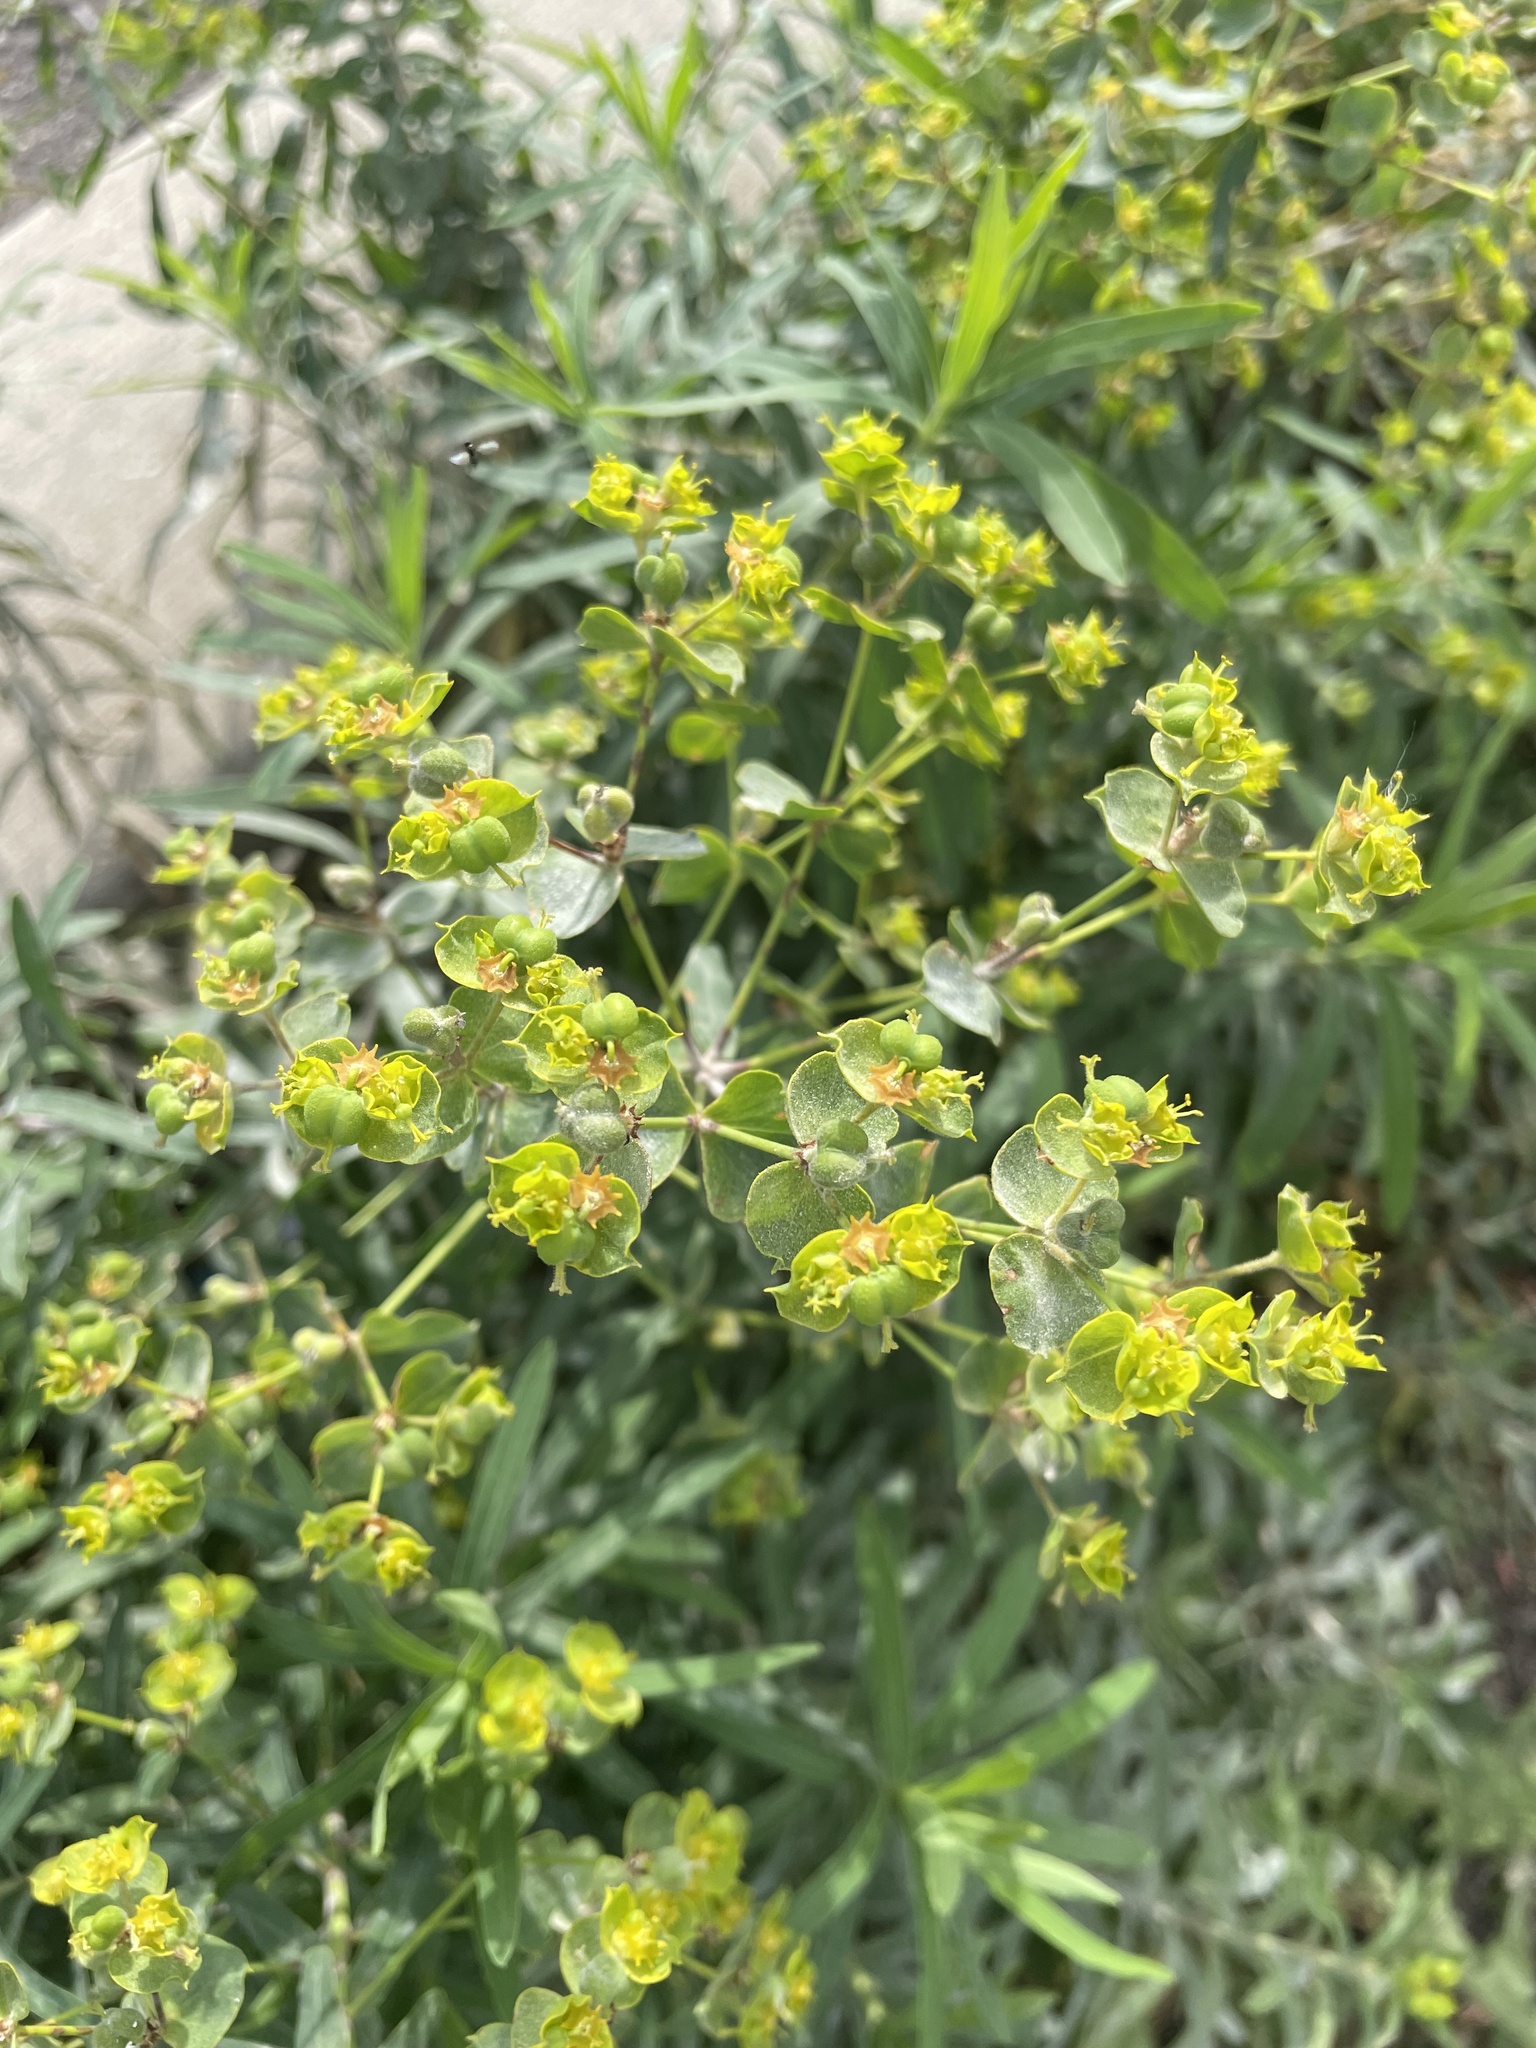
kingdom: Plantae
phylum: Tracheophyta
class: Magnoliopsida
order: Malpighiales
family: Euphorbiaceae
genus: Euphorbia
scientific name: Euphorbia virgata
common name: Leafy spurge
